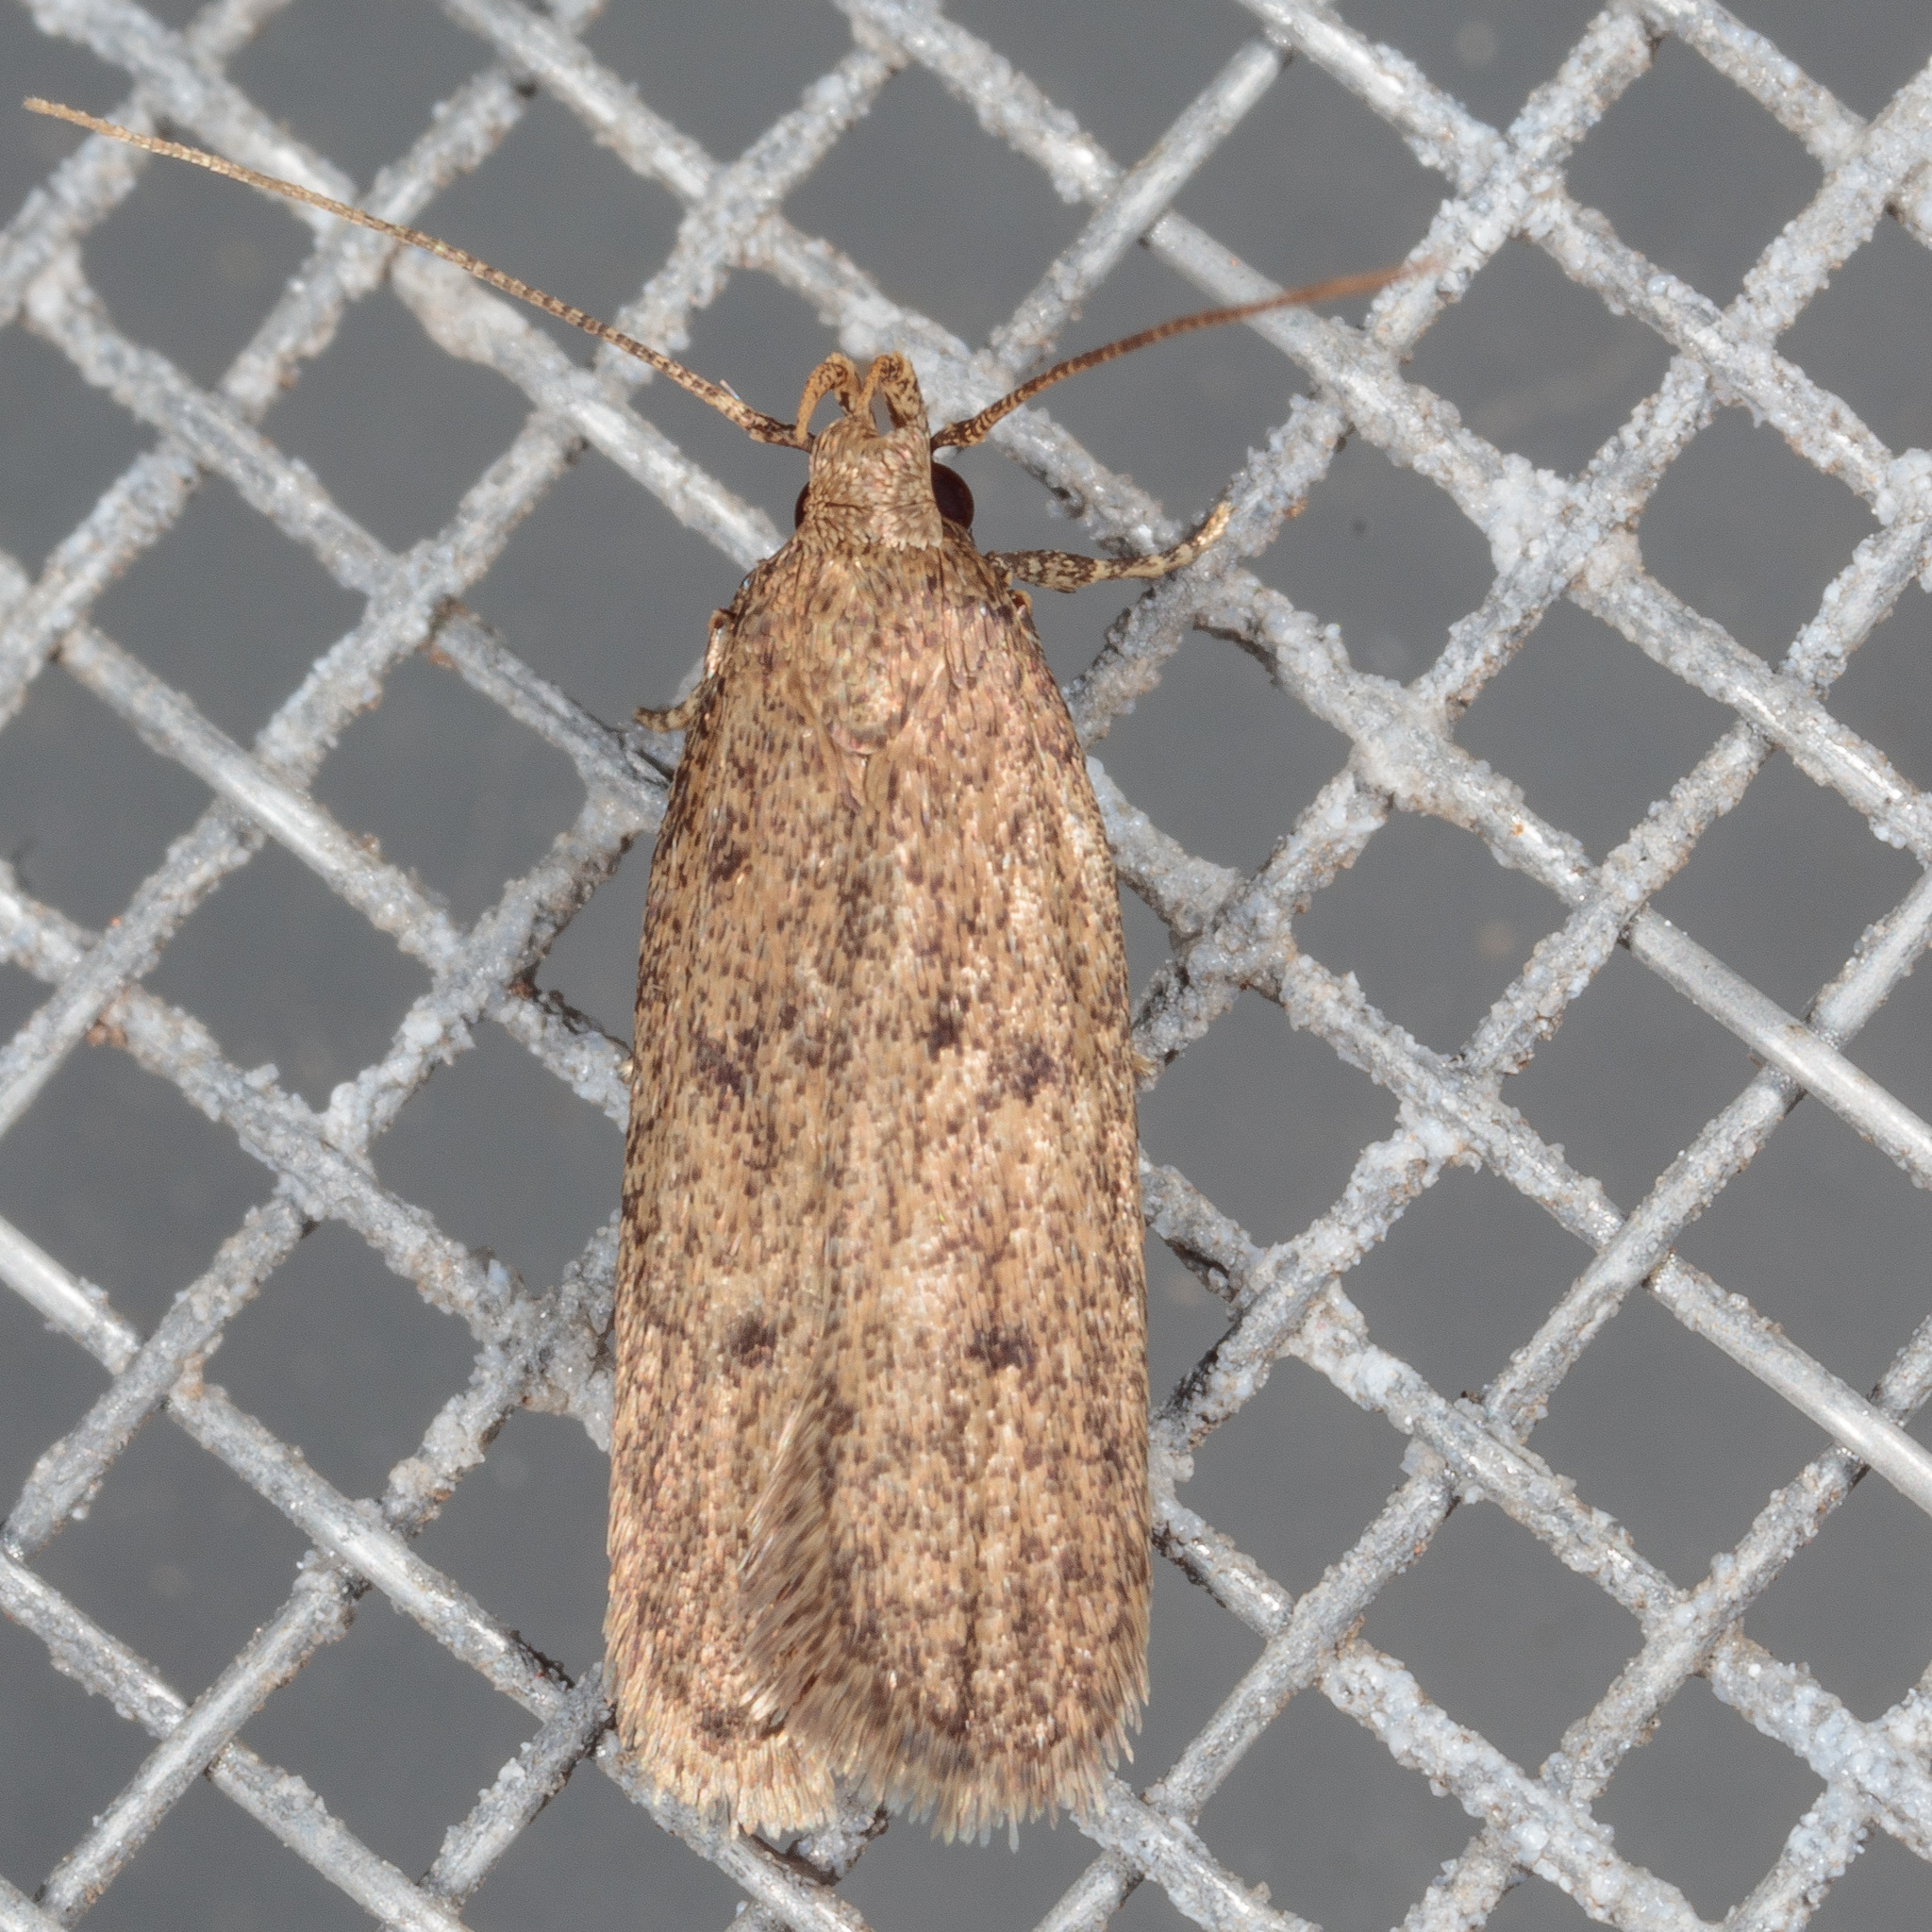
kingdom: Animalia
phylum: Arthropoda
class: Insecta
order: Lepidoptera
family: Autostichidae
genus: Glyphidocera
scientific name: Glyphidocera juniperella
